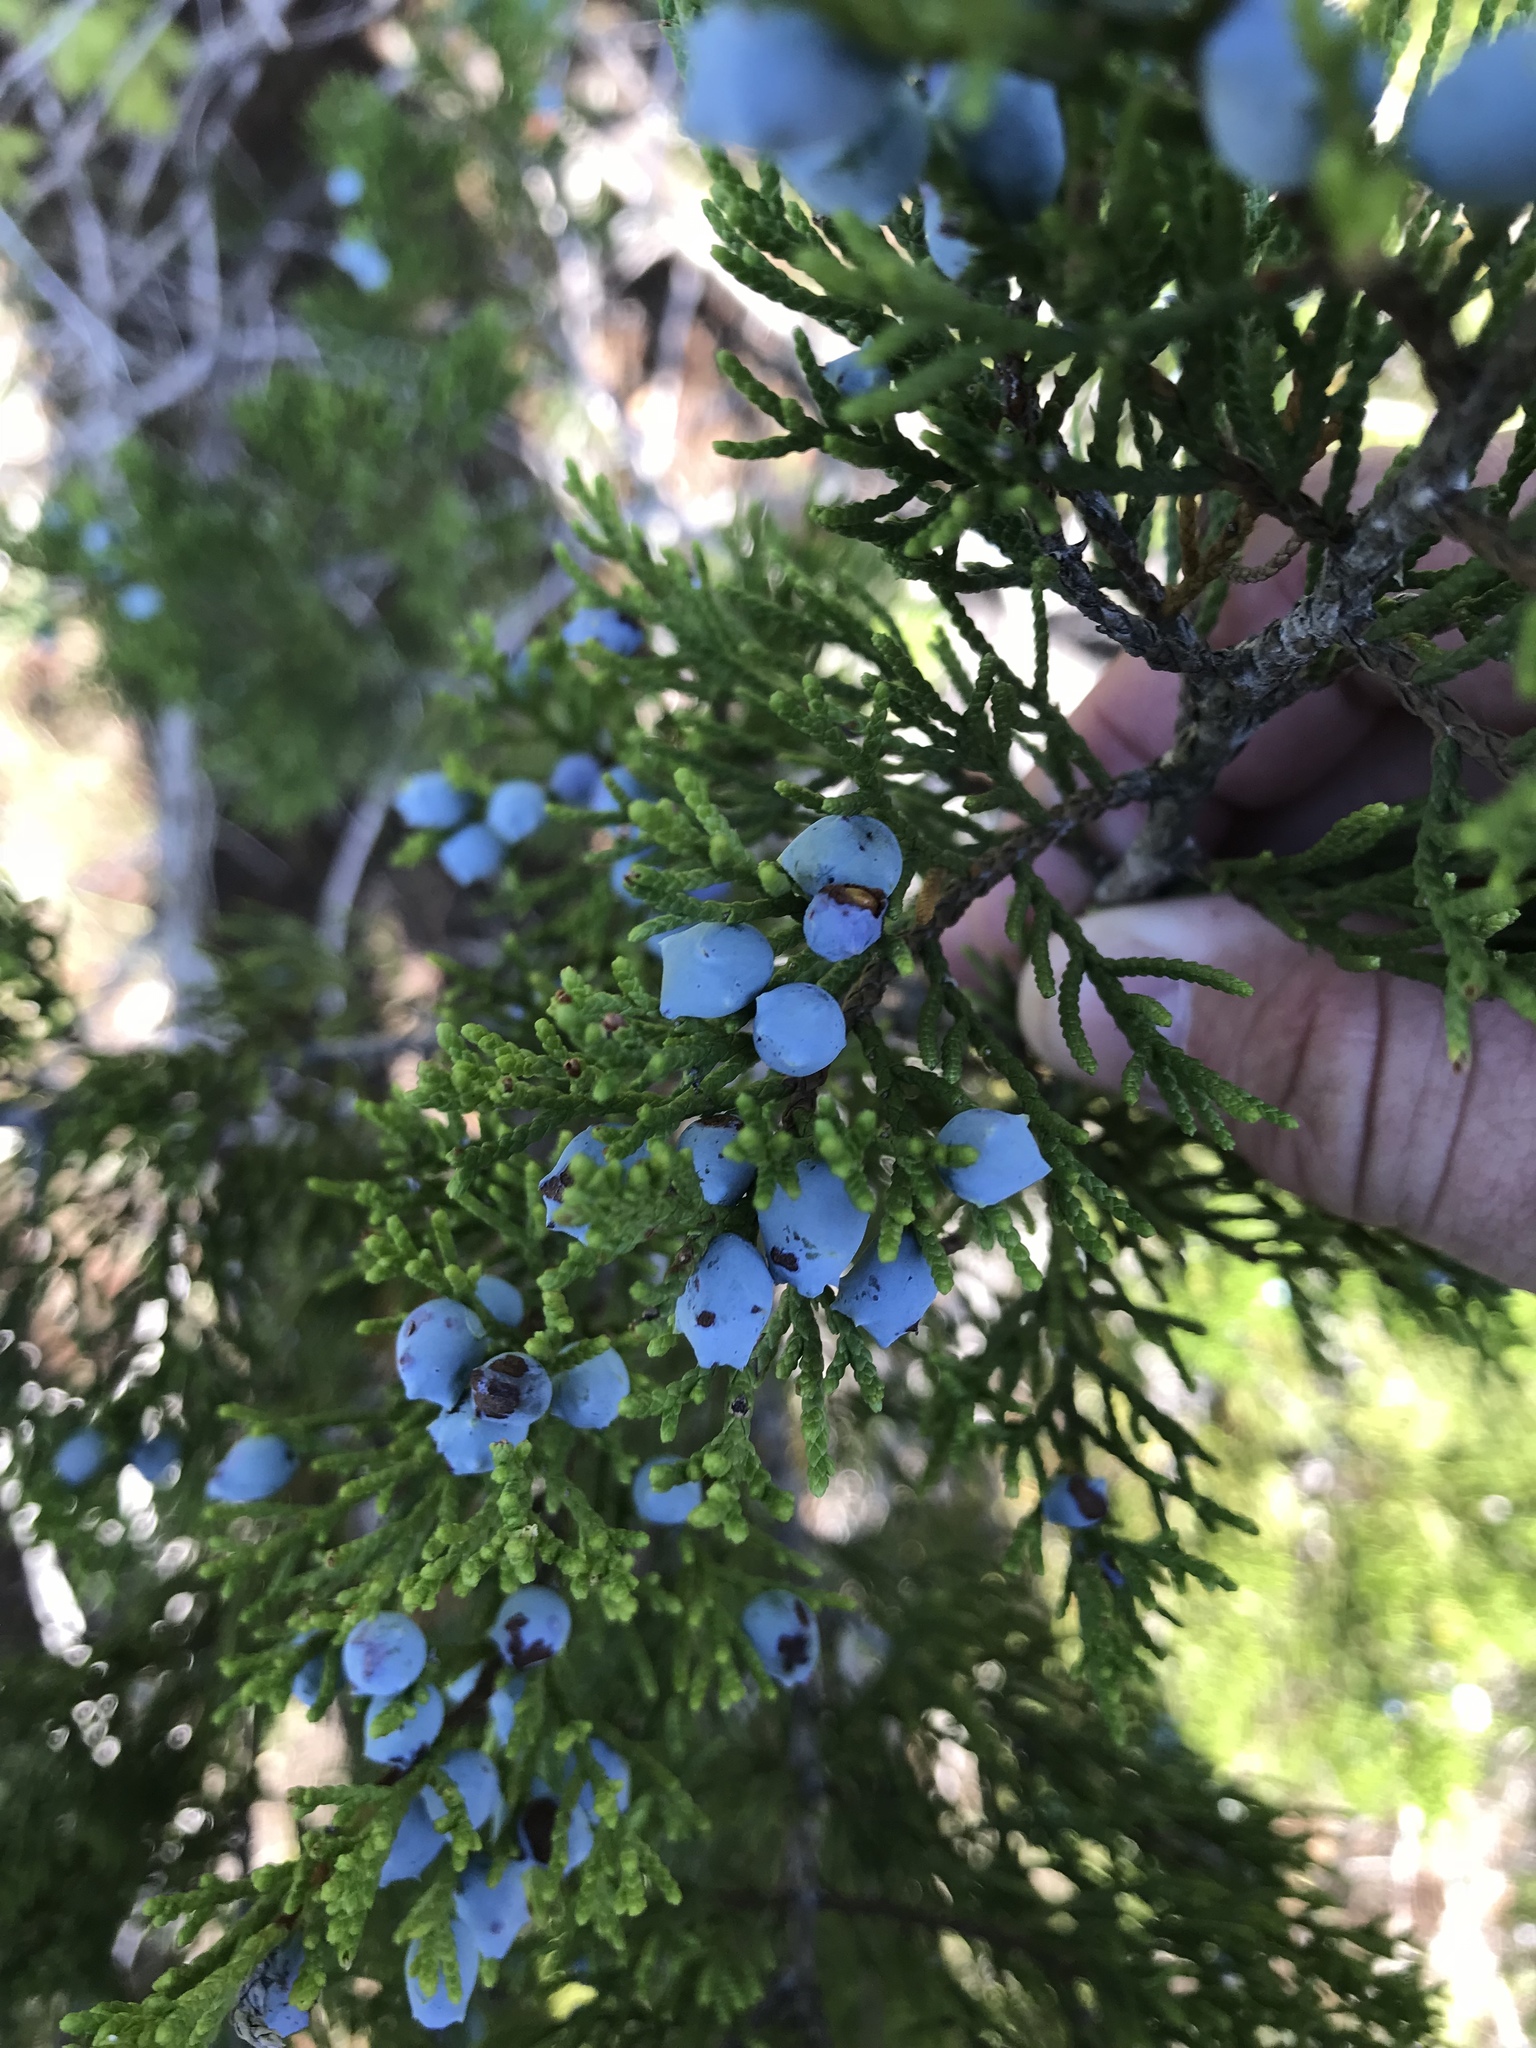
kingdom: Plantae
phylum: Tracheophyta
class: Pinopsida
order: Pinales
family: Cupressaceae
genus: Juniperus
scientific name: Juniperus ashei
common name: Mexican juniper
